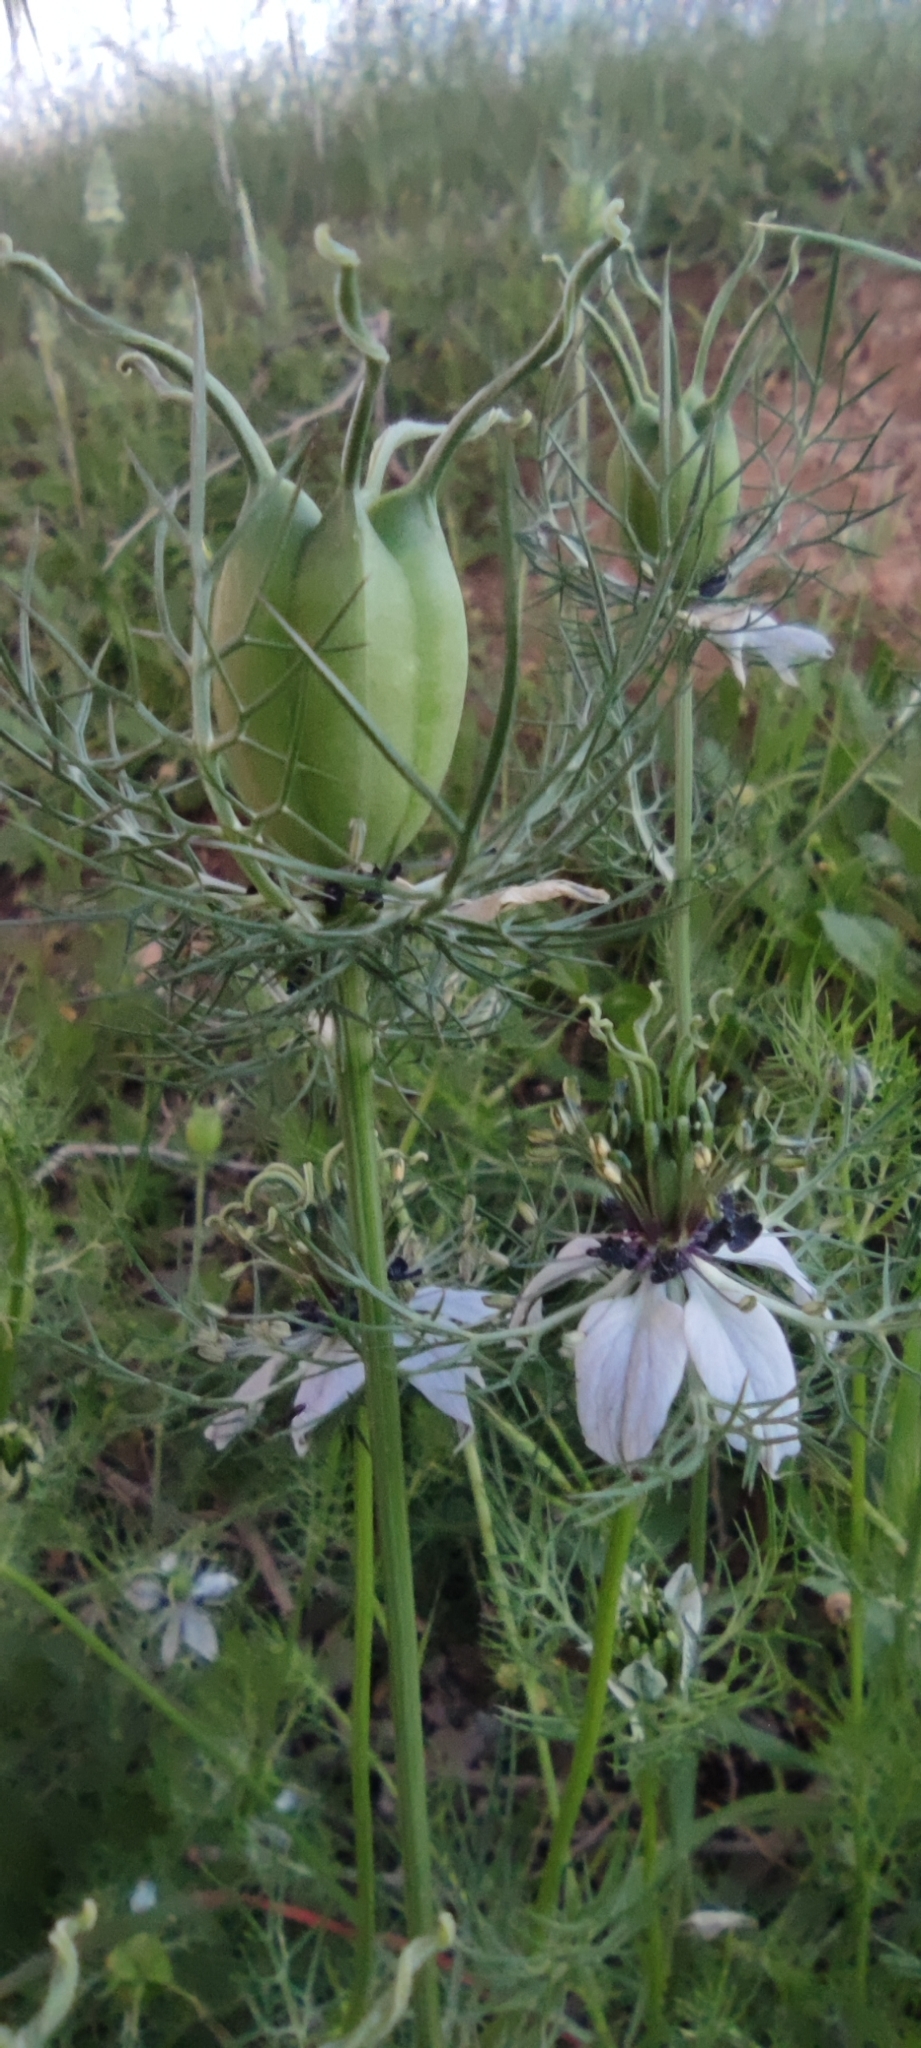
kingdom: Plantae
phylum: Tracheophyta
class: Magnoliopsida
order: Ranunculales
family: Ranunculaceae
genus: Nigella
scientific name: Nigella damascena
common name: Love-in-a-mist
